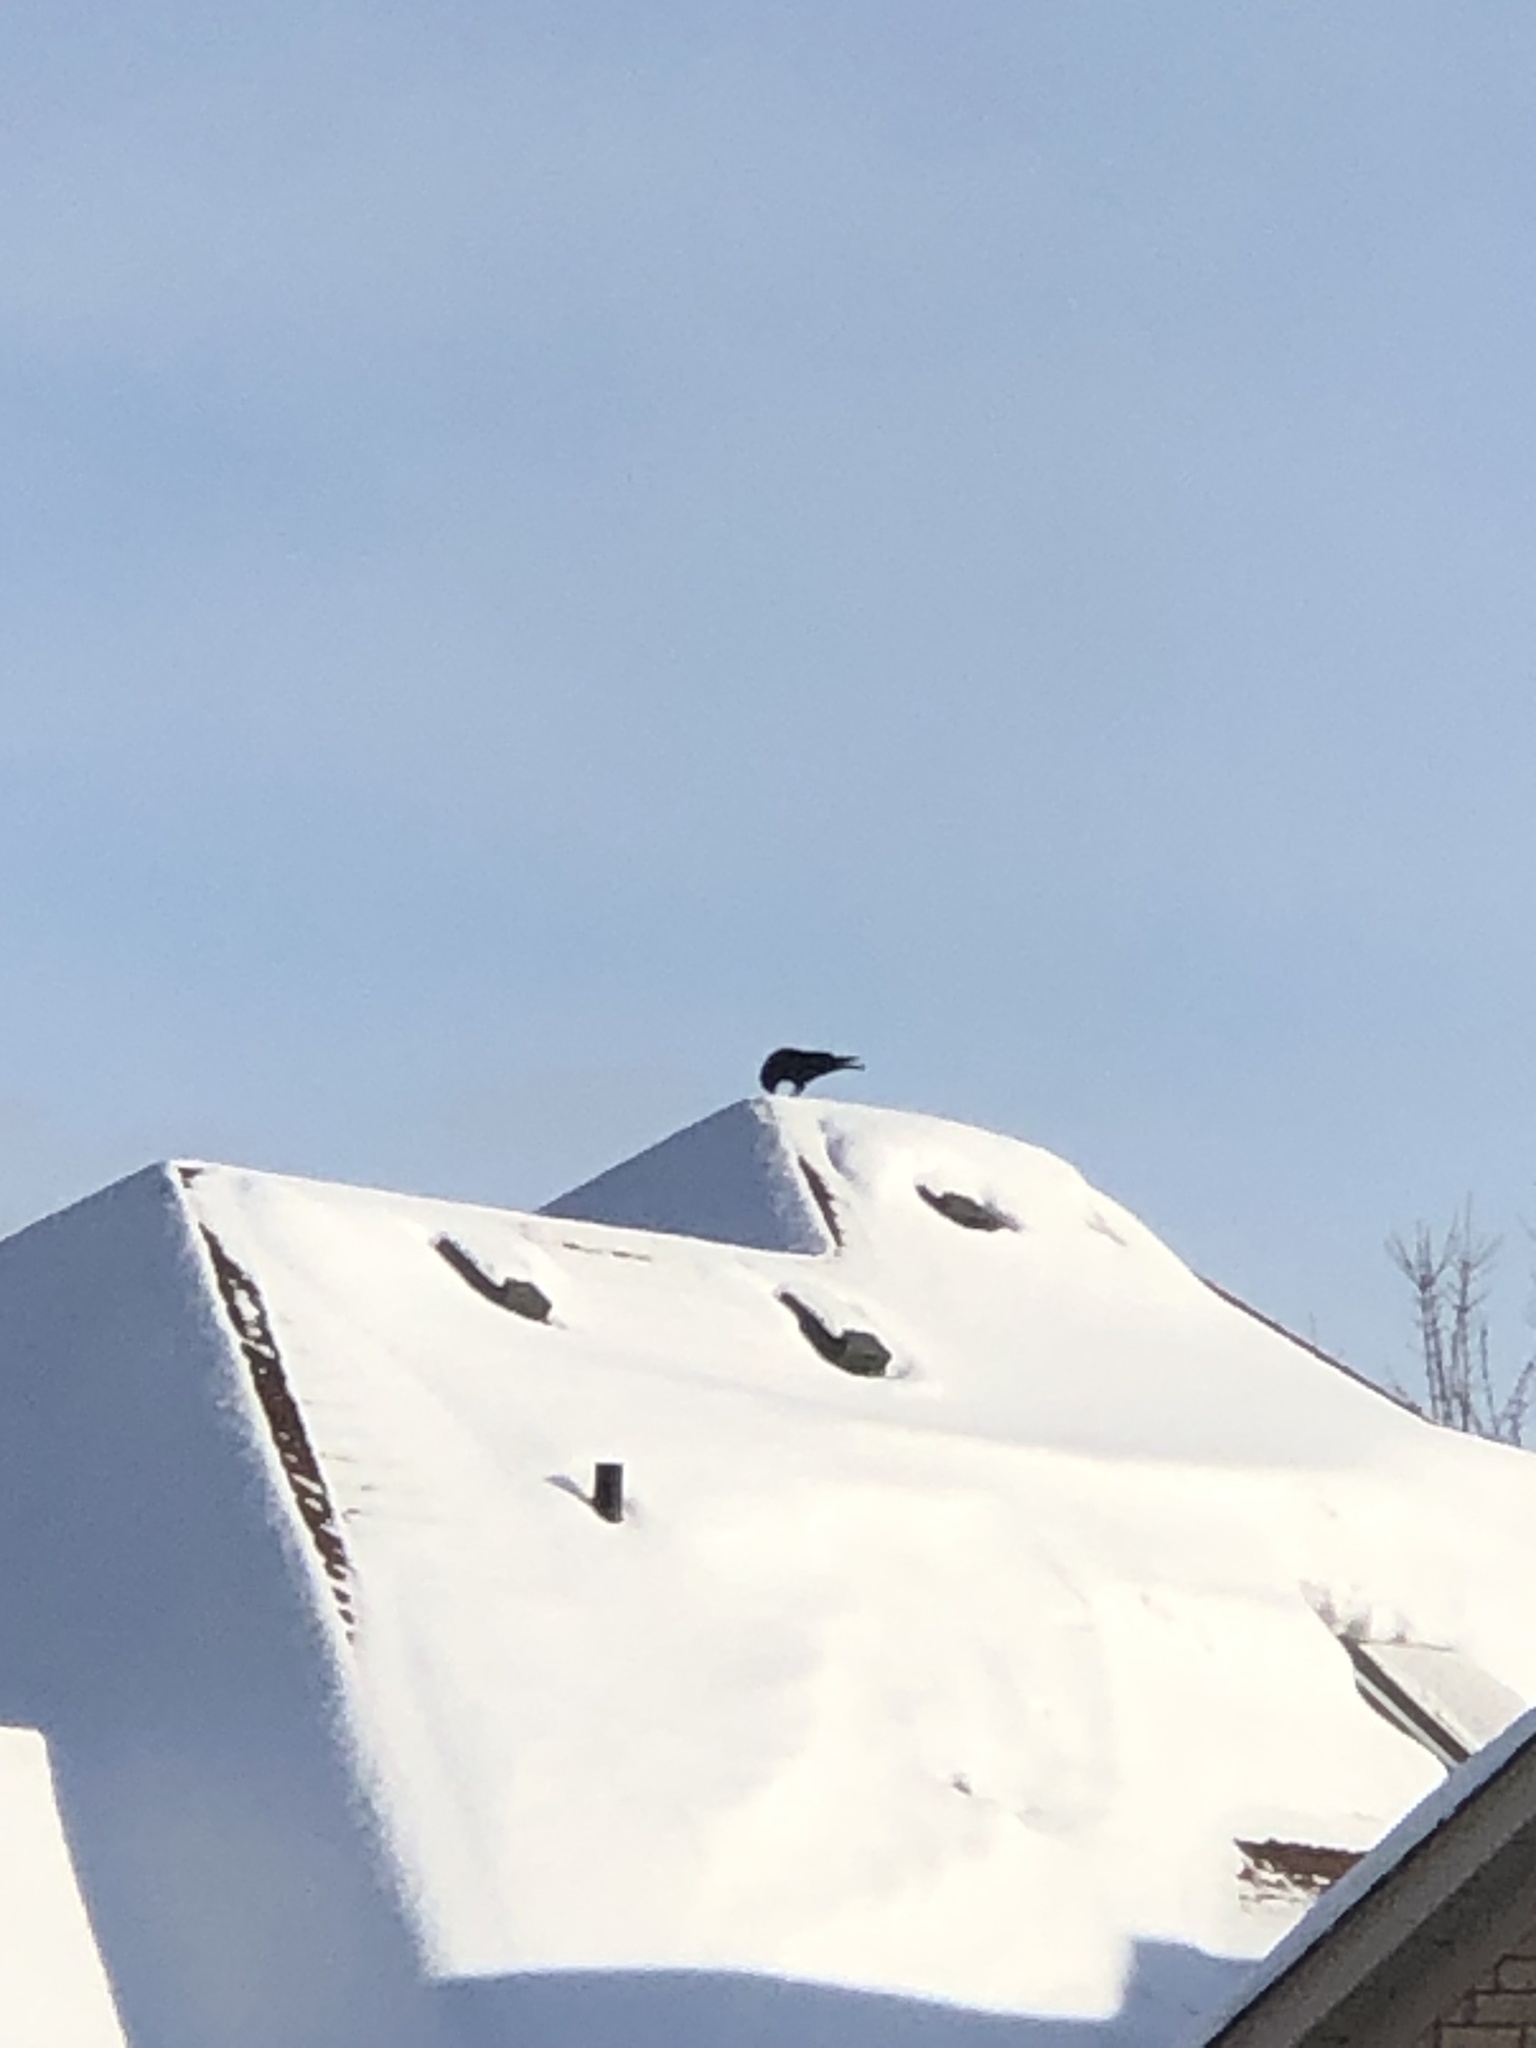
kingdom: Animalia
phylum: Chordata
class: Aves
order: Passeriformes
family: Corvidae
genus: Corvus
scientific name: Corvus brachyrhynchos
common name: American crow
